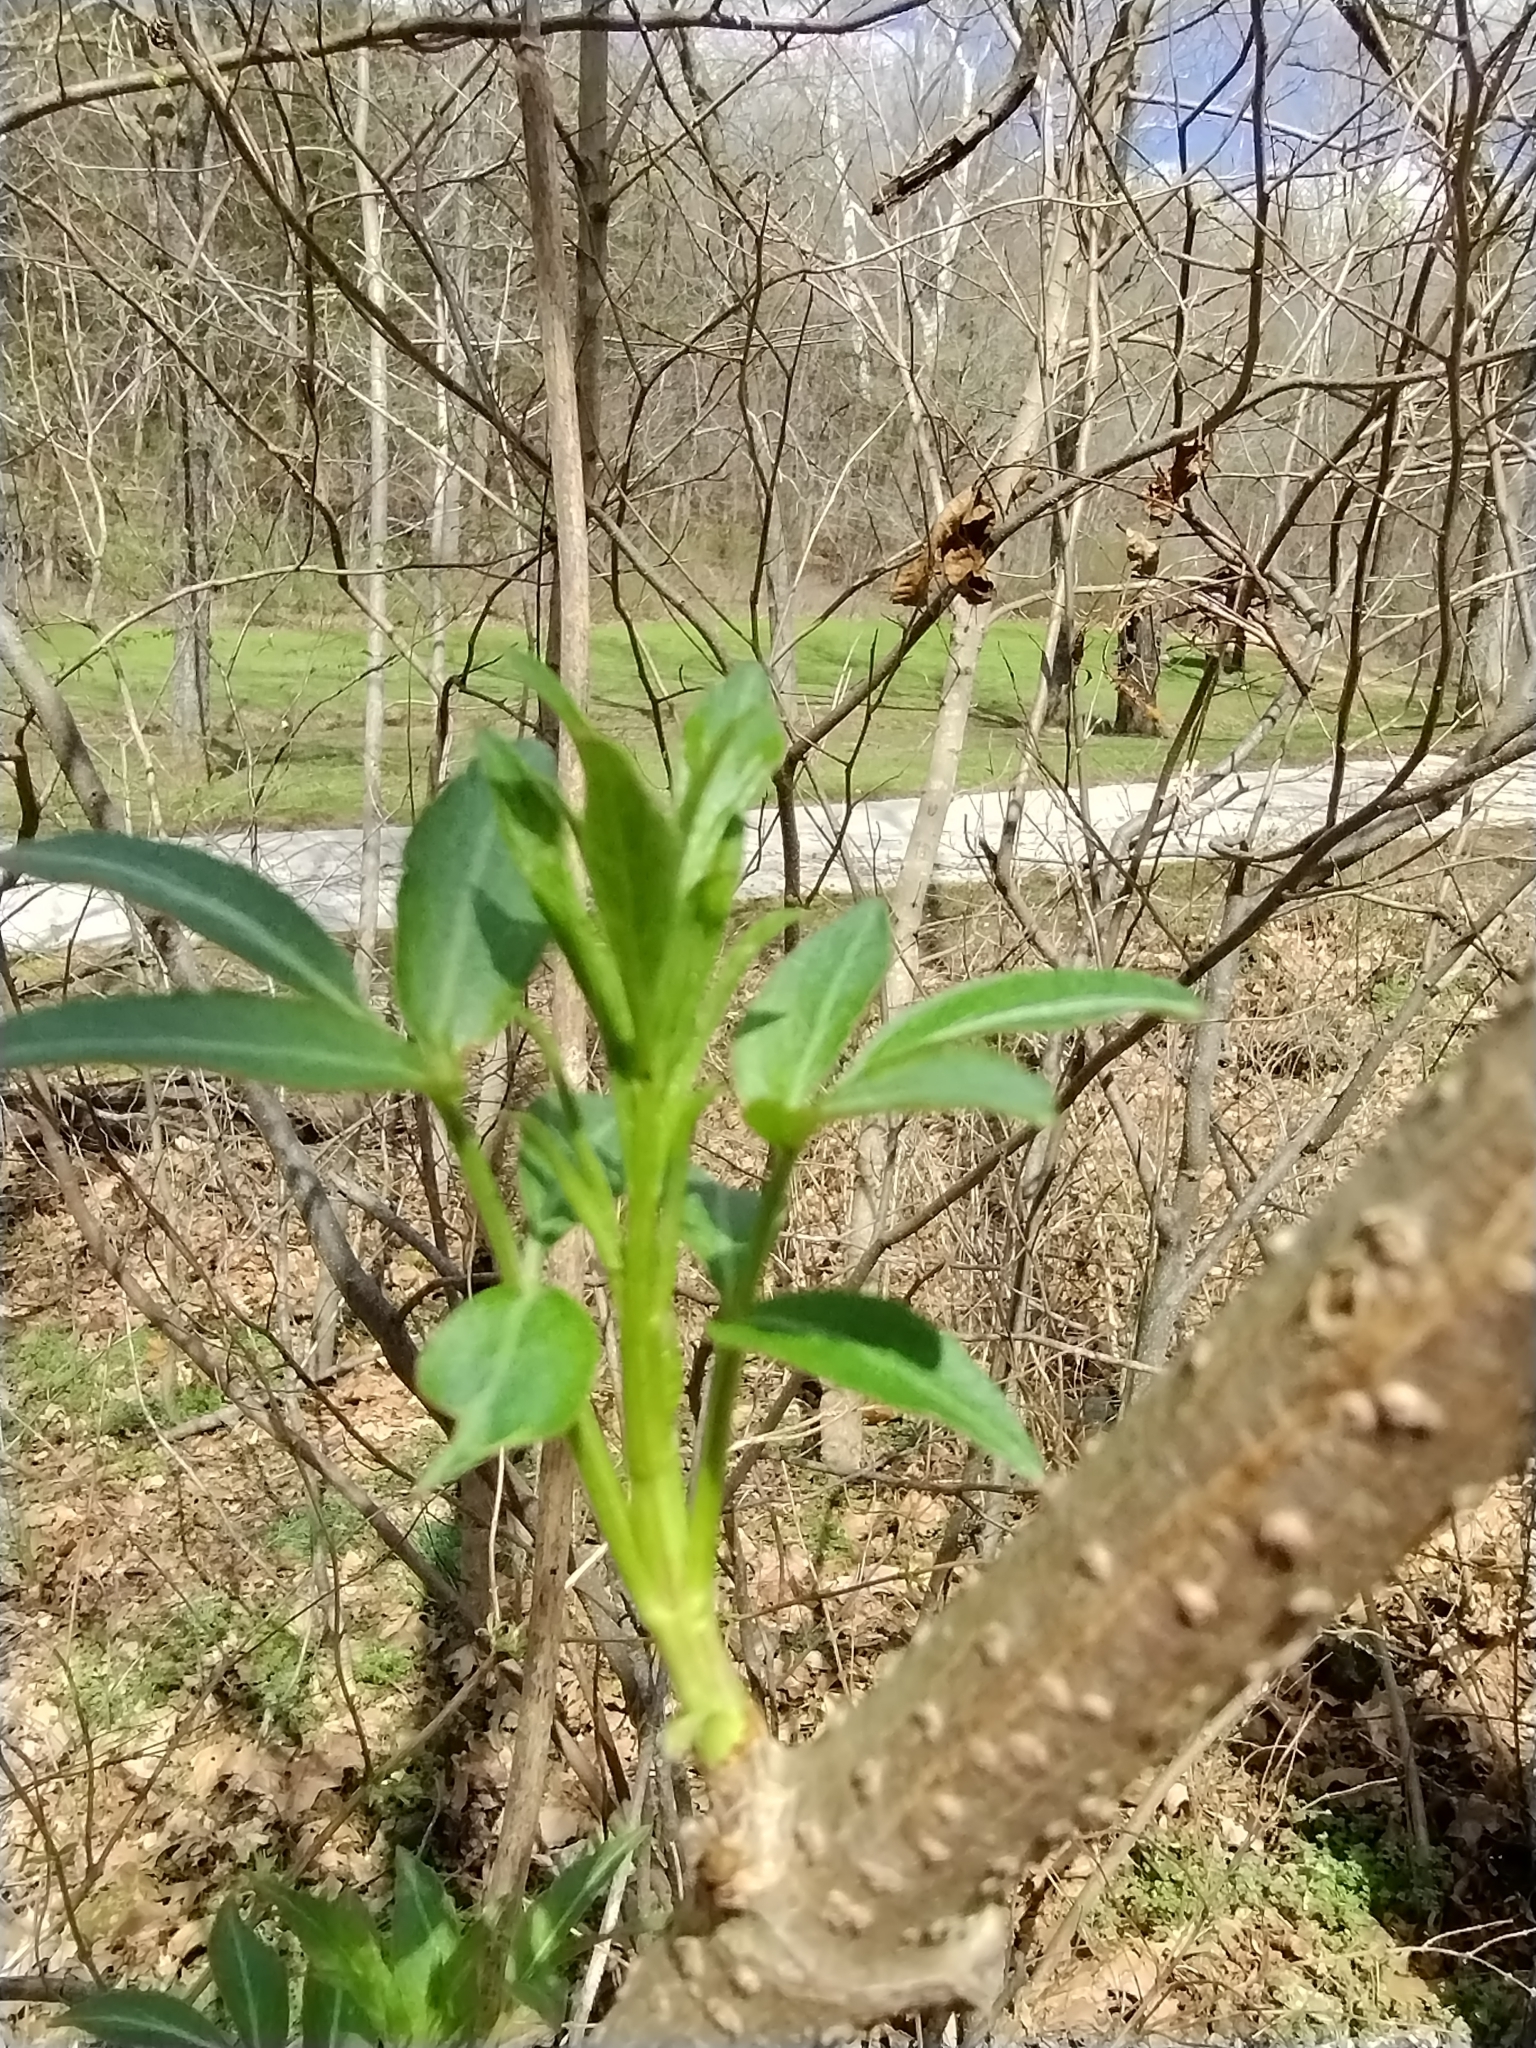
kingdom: Plantae
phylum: Tracheophyta
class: Magnoliopsida
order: Dipsacales
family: Viburnaceae
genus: Sambucus
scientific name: Sambucus canadensis
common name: American elder
